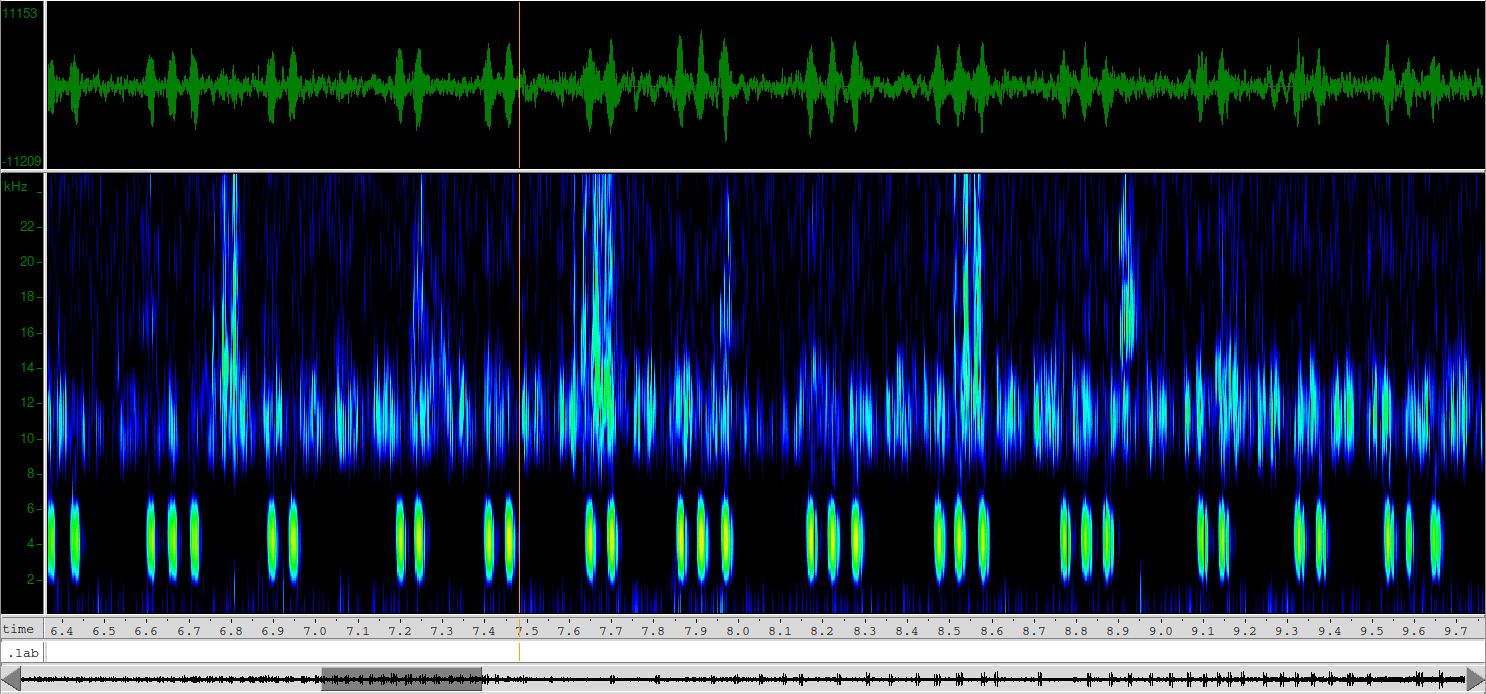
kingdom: Animalia
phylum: Arthropoda
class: Insecta
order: Orthoptera
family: Gryllidae
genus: Acheta
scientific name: Acheta domesticus
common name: House cricket
